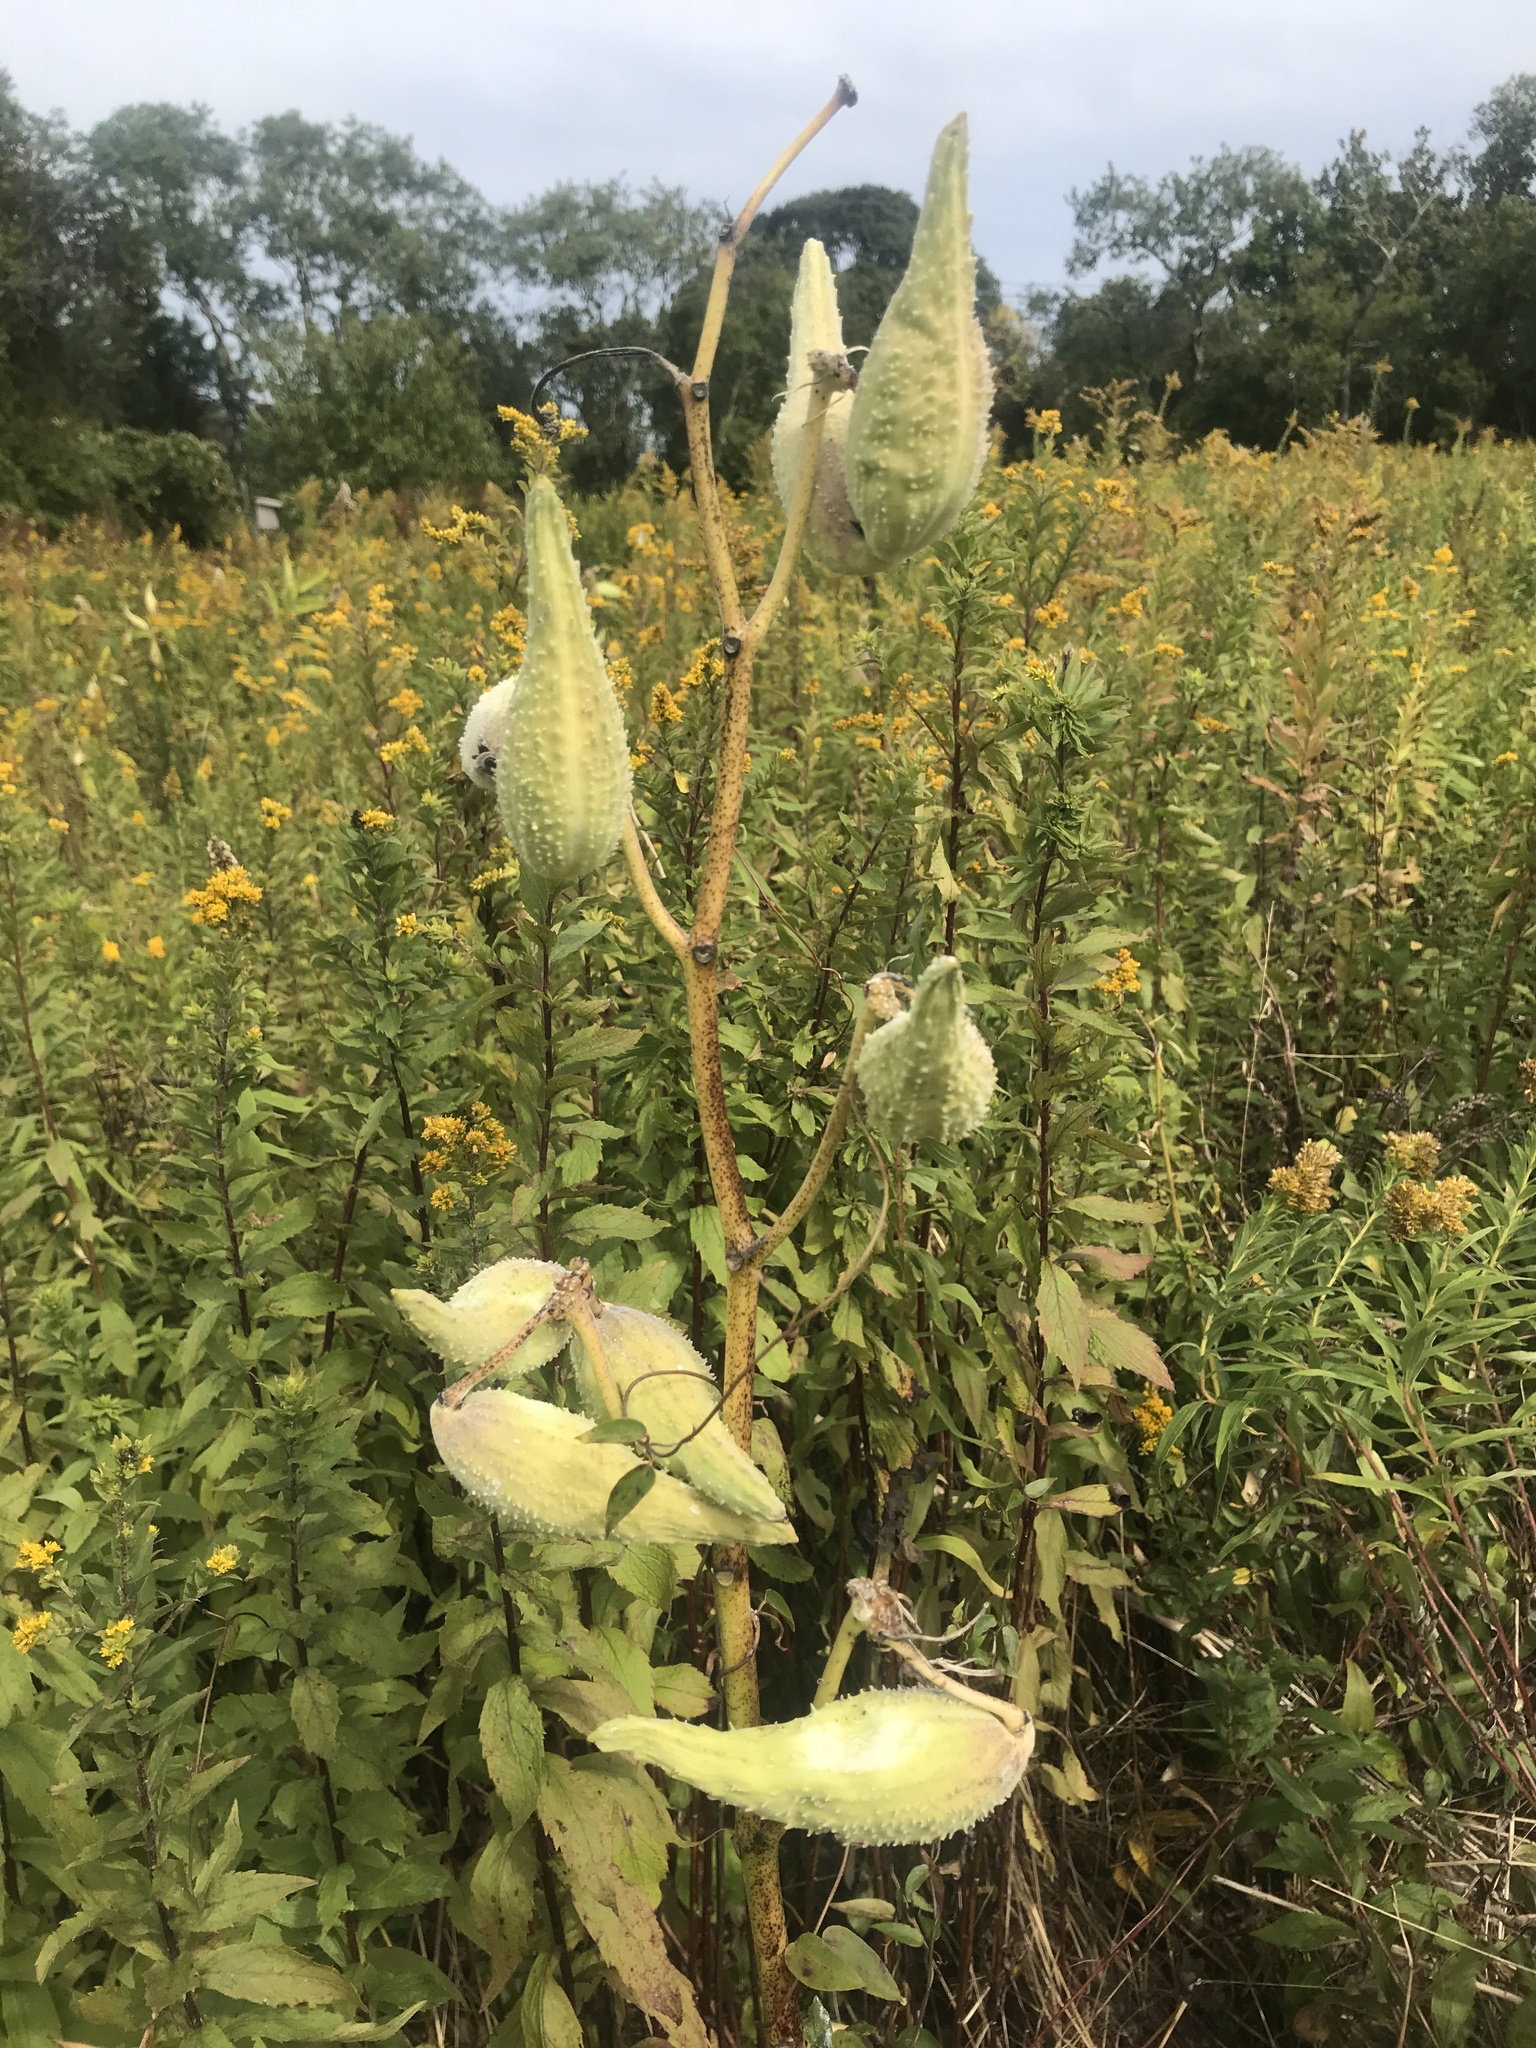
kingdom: Plantae
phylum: Tracheophyta
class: Magnoliopsida
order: Gentianales
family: Apocynaceae
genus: Asclepias
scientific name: Asclepias syriaca
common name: Common milkweed
